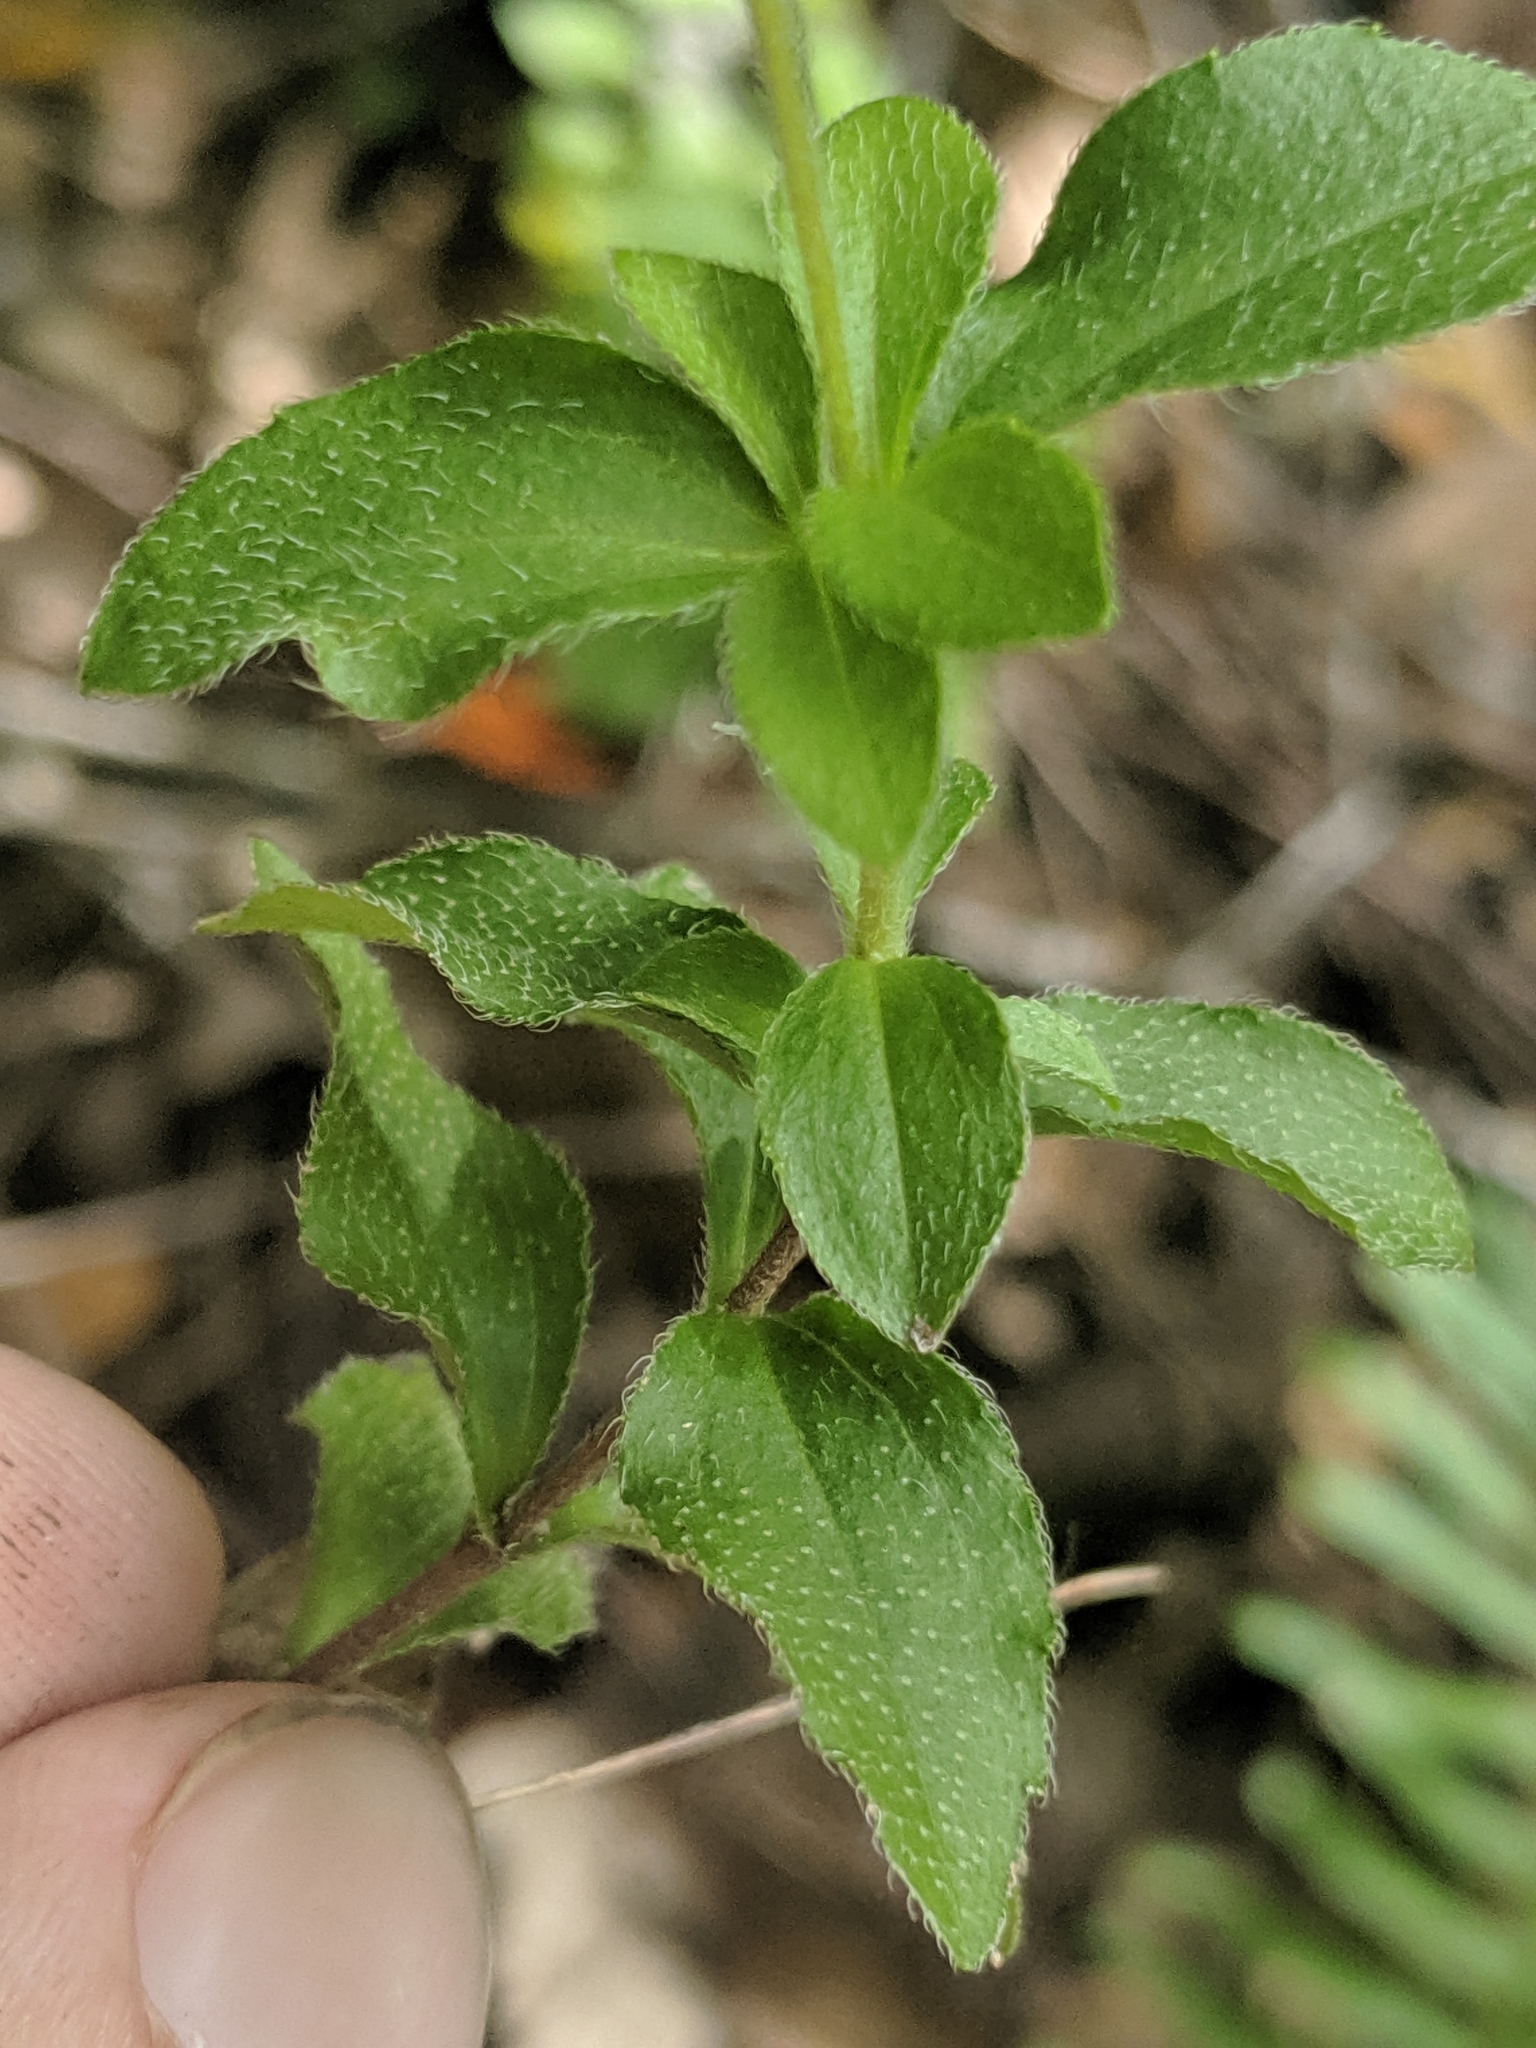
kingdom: Plantae
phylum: Tracheophyta
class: Magnoliopsida
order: Cornales
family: Hydrangeaceae
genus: Whipplea
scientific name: Whipplea modesta
